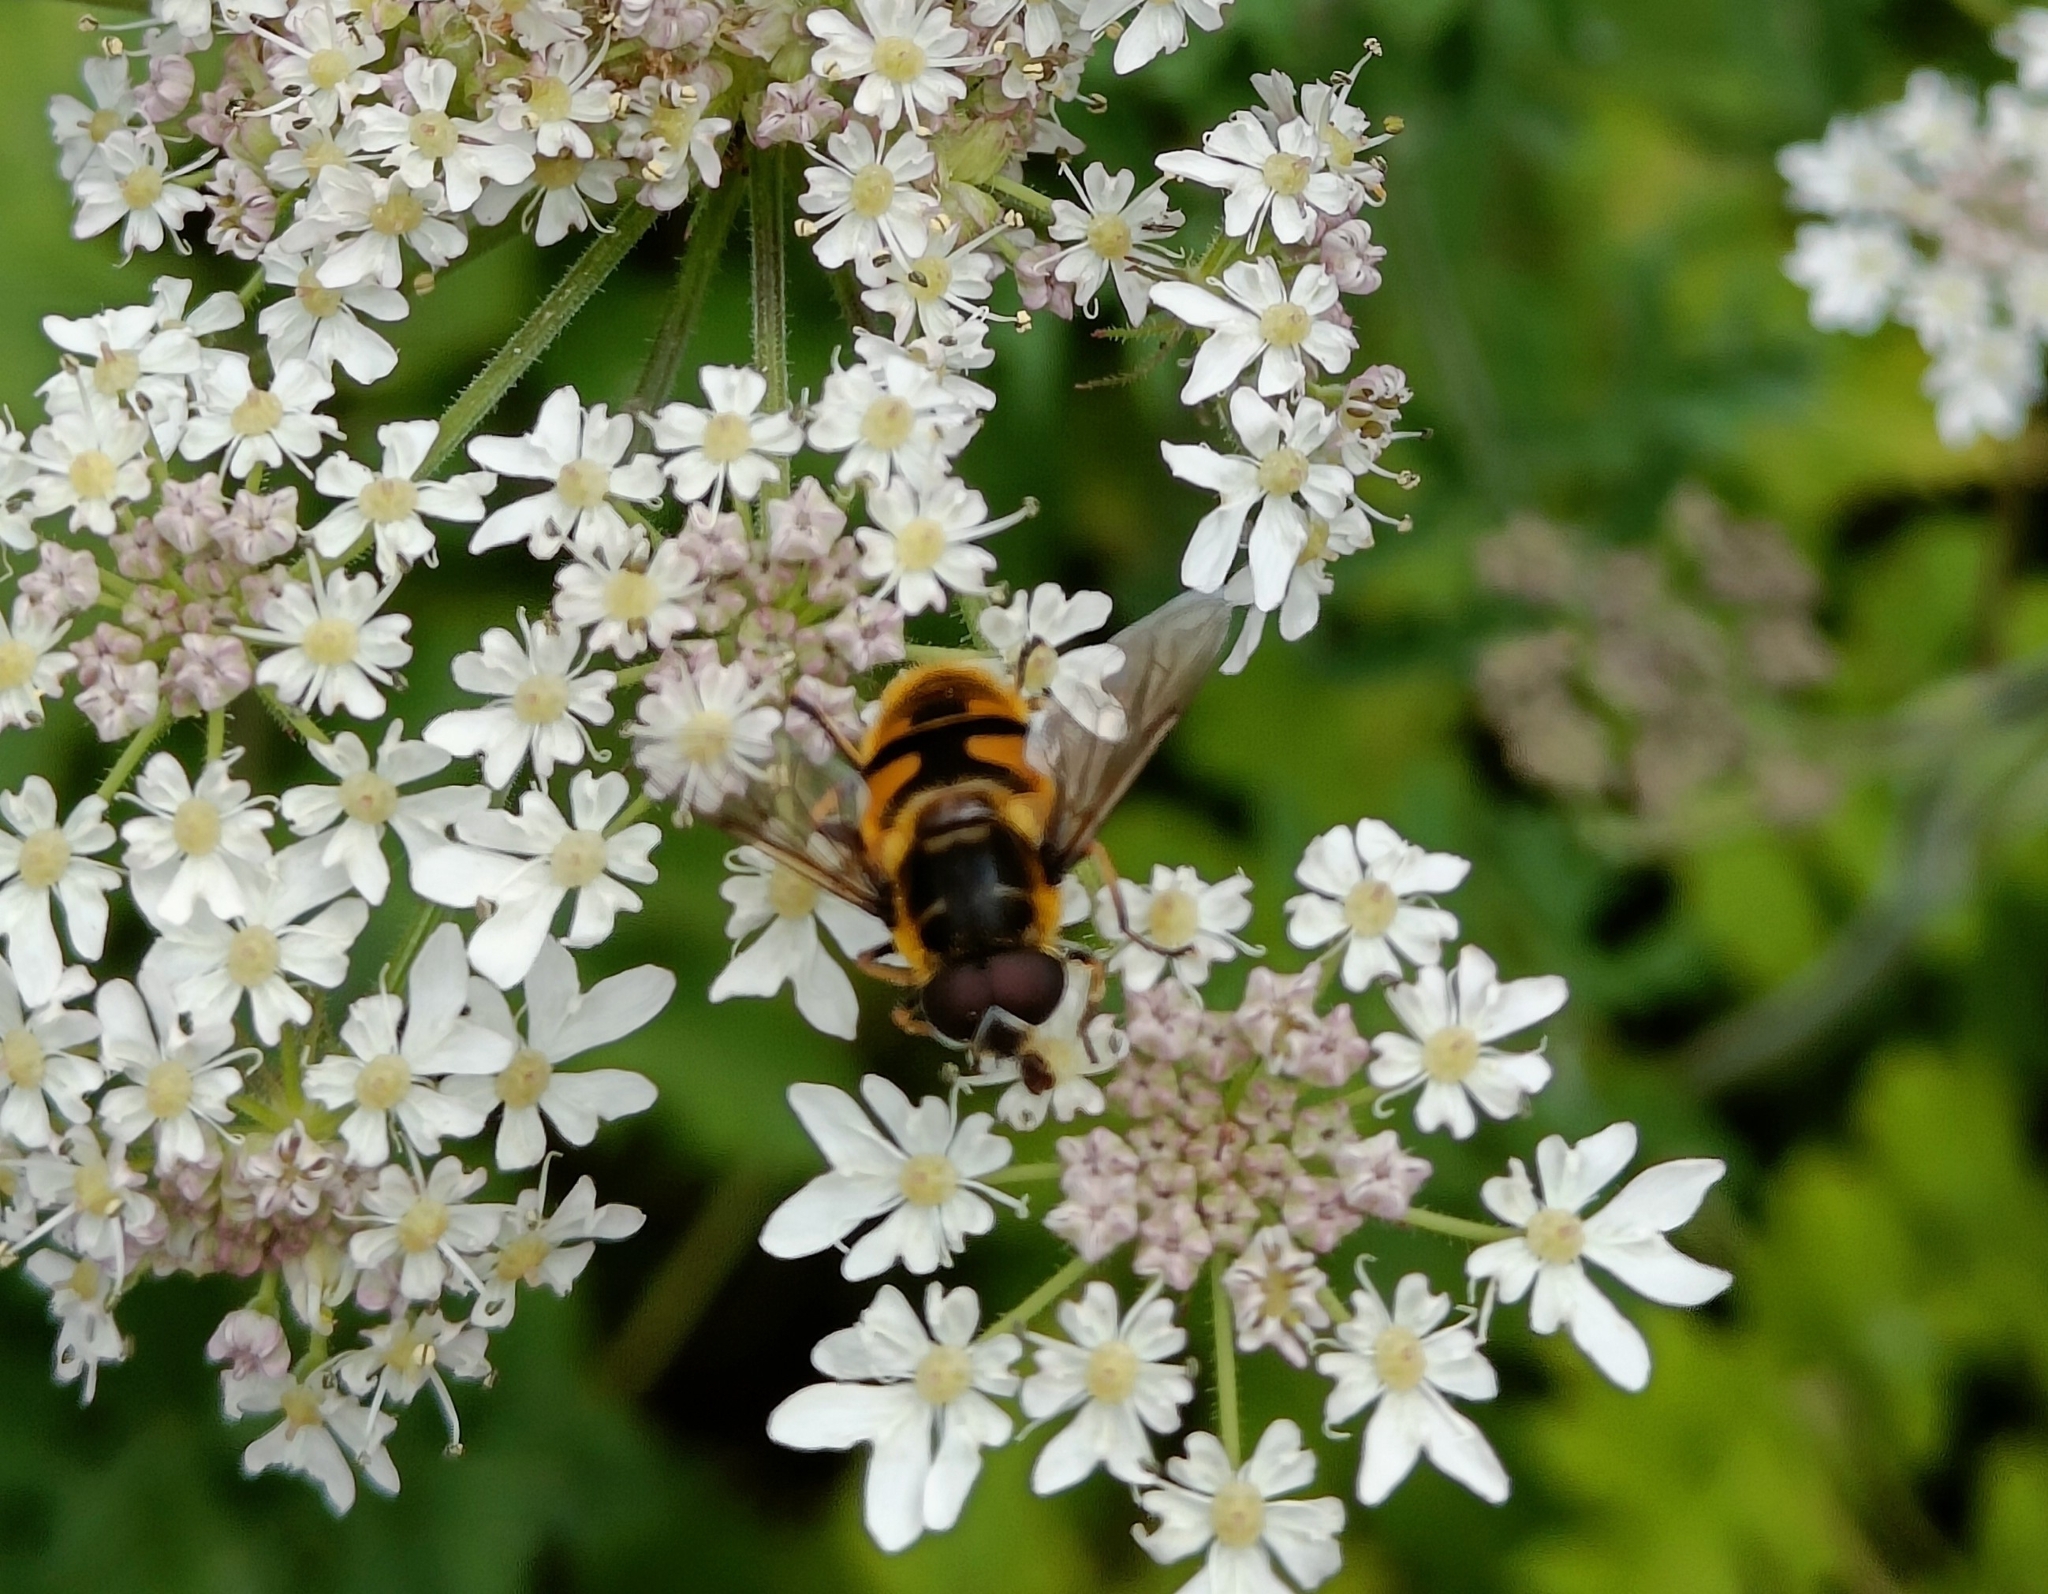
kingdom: Animalia
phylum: Arthropoda
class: Insecta
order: Diptera
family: Syrphidae
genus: Myathropa
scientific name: Myathropa florea
